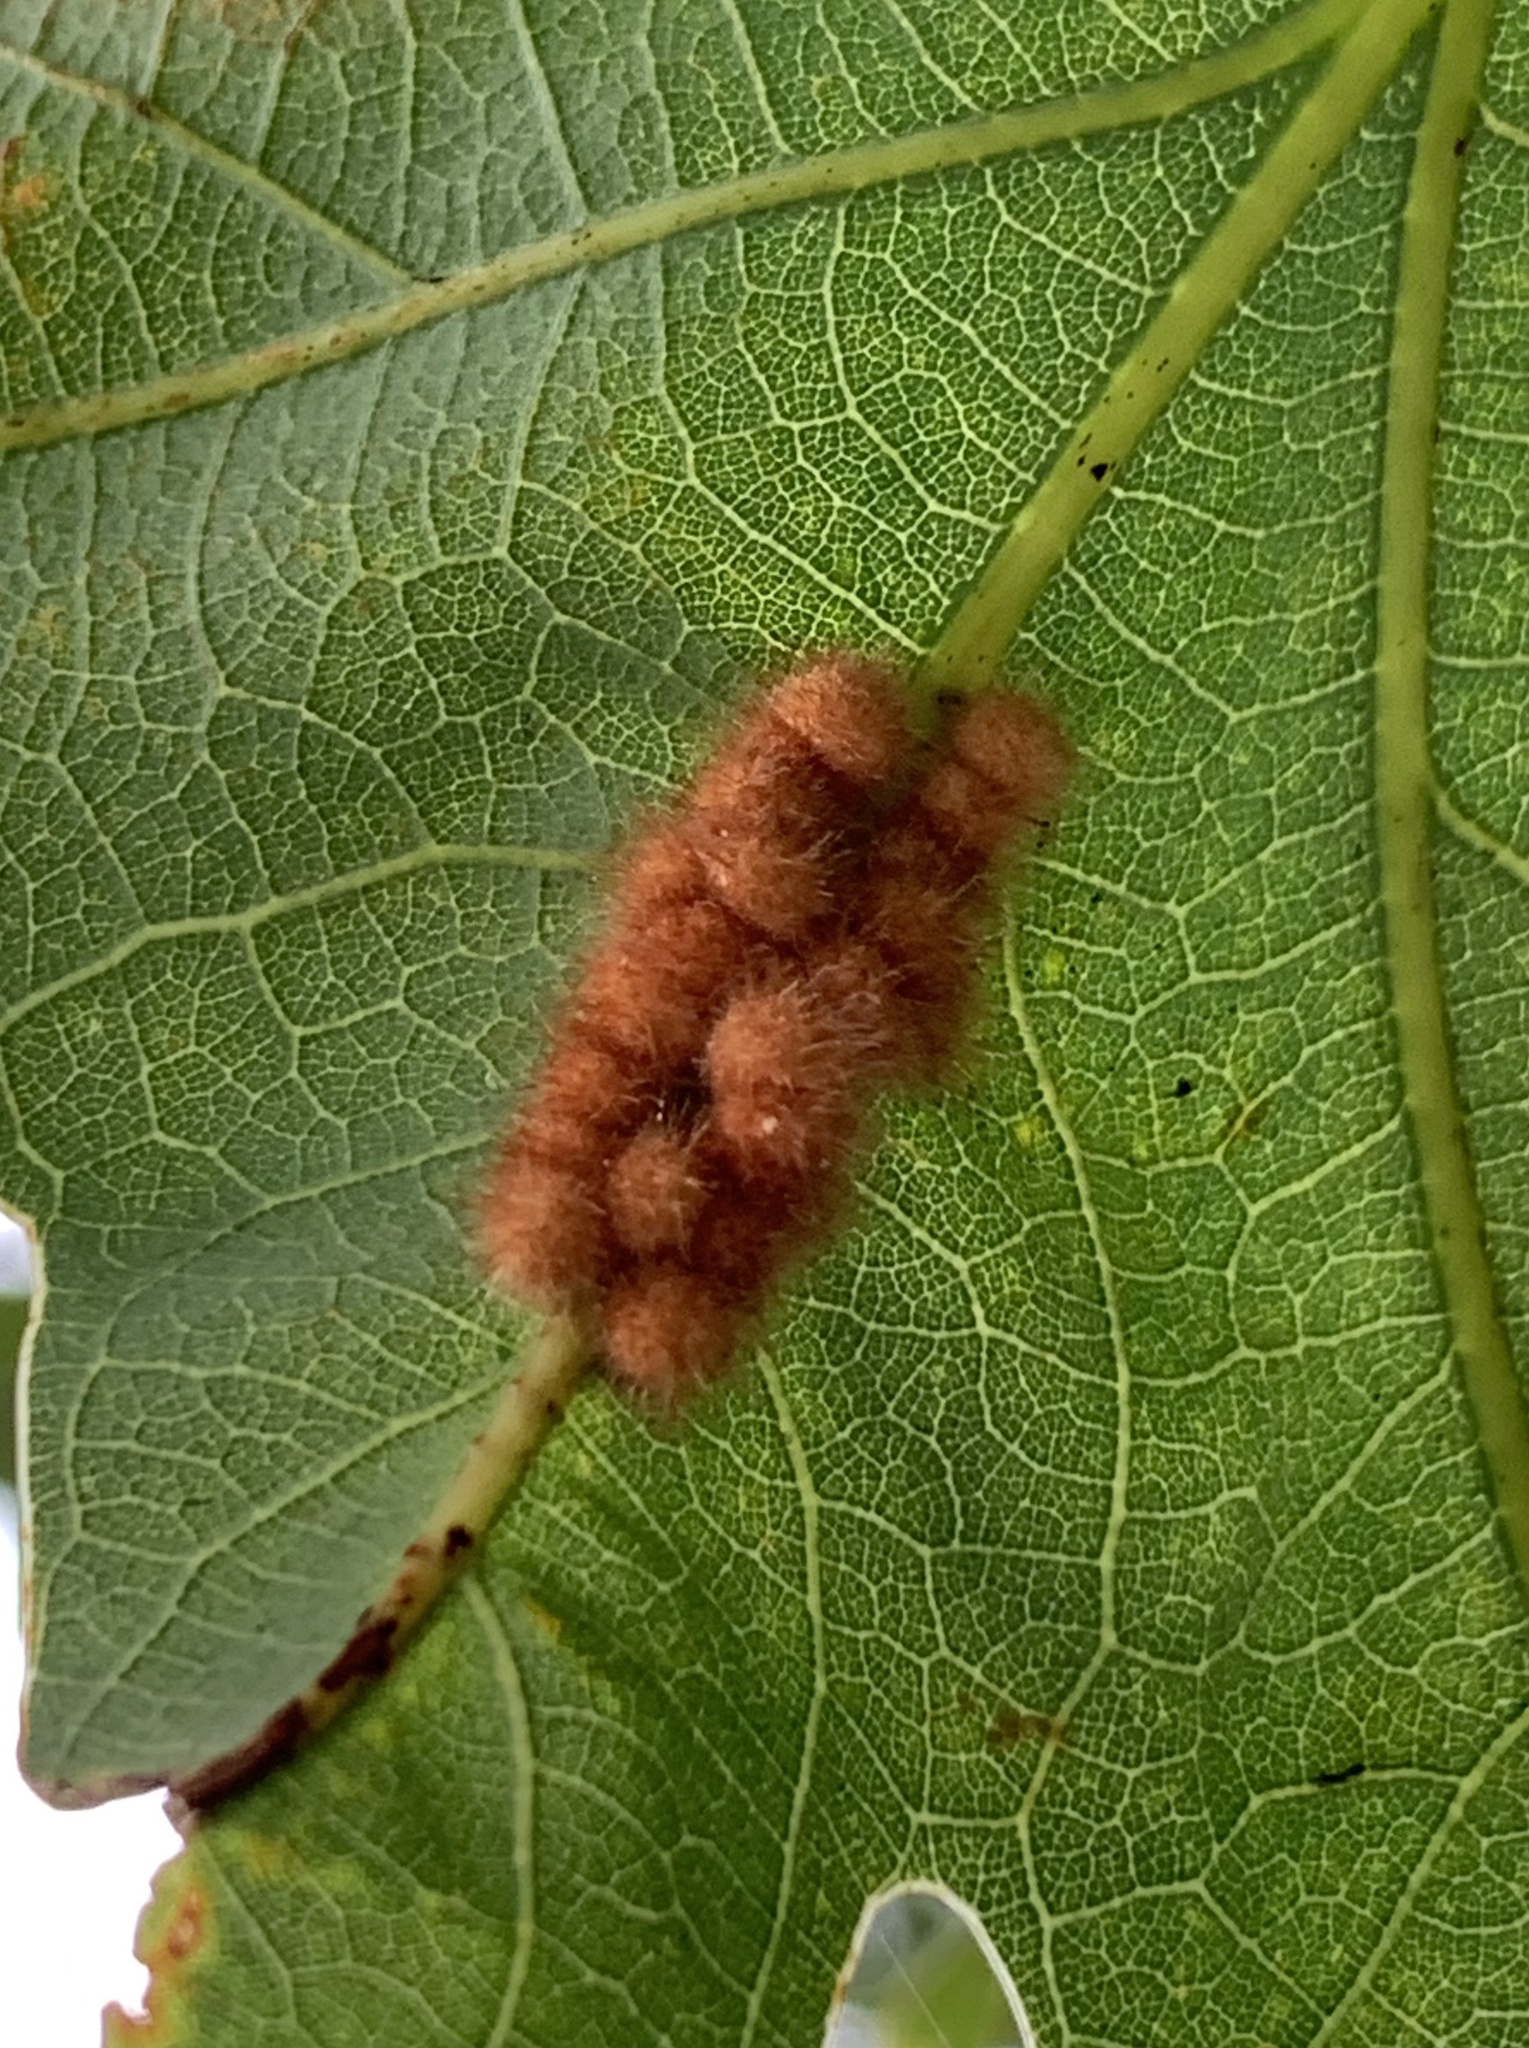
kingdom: Animalia
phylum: Arthropoda
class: Insecta
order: Hymenoptera
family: Cynipidae
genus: Andricus
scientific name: Andricus
